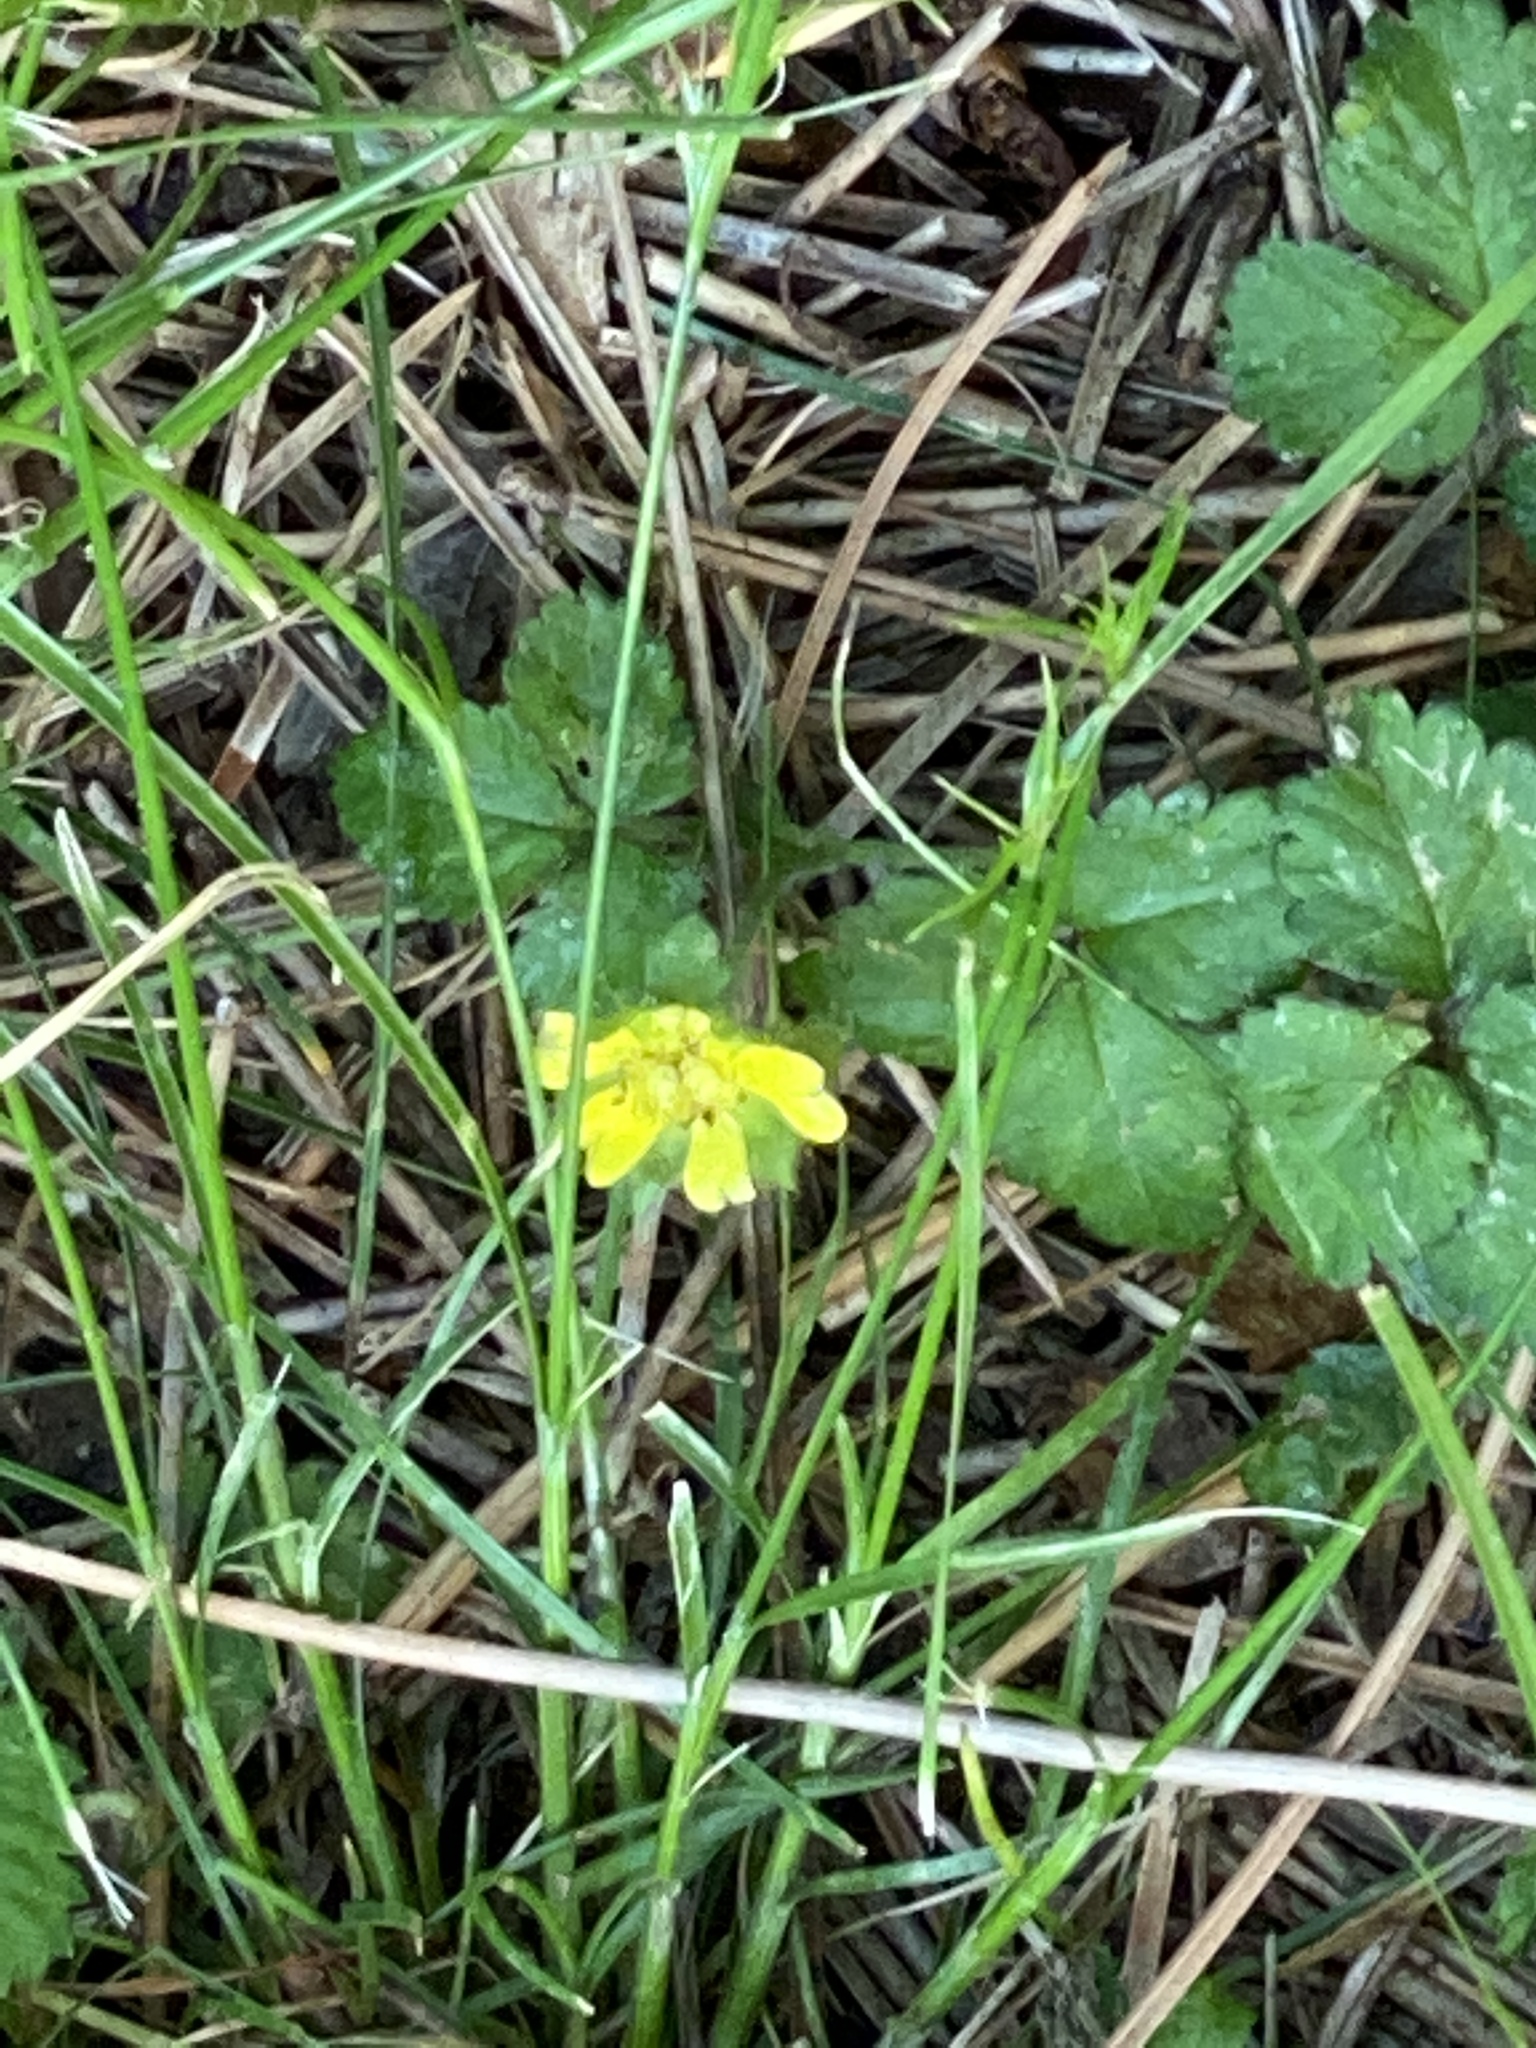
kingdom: Plantae
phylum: Tracheophyta
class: Magnoliopsida
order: Rosales
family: Rosaceae
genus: Potentilla
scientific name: Potentilla indica
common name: Yellow-flowered strawberry
